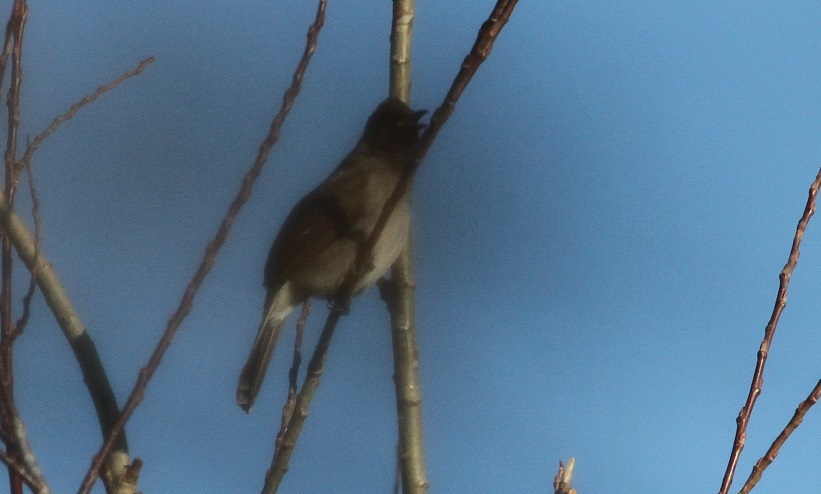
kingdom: Animalia
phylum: Chordata
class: Aves
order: Passeriformes
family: Pycnonotidae
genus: Pycnonotus
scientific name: Pycnonotus barbatus
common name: Common bulbul
